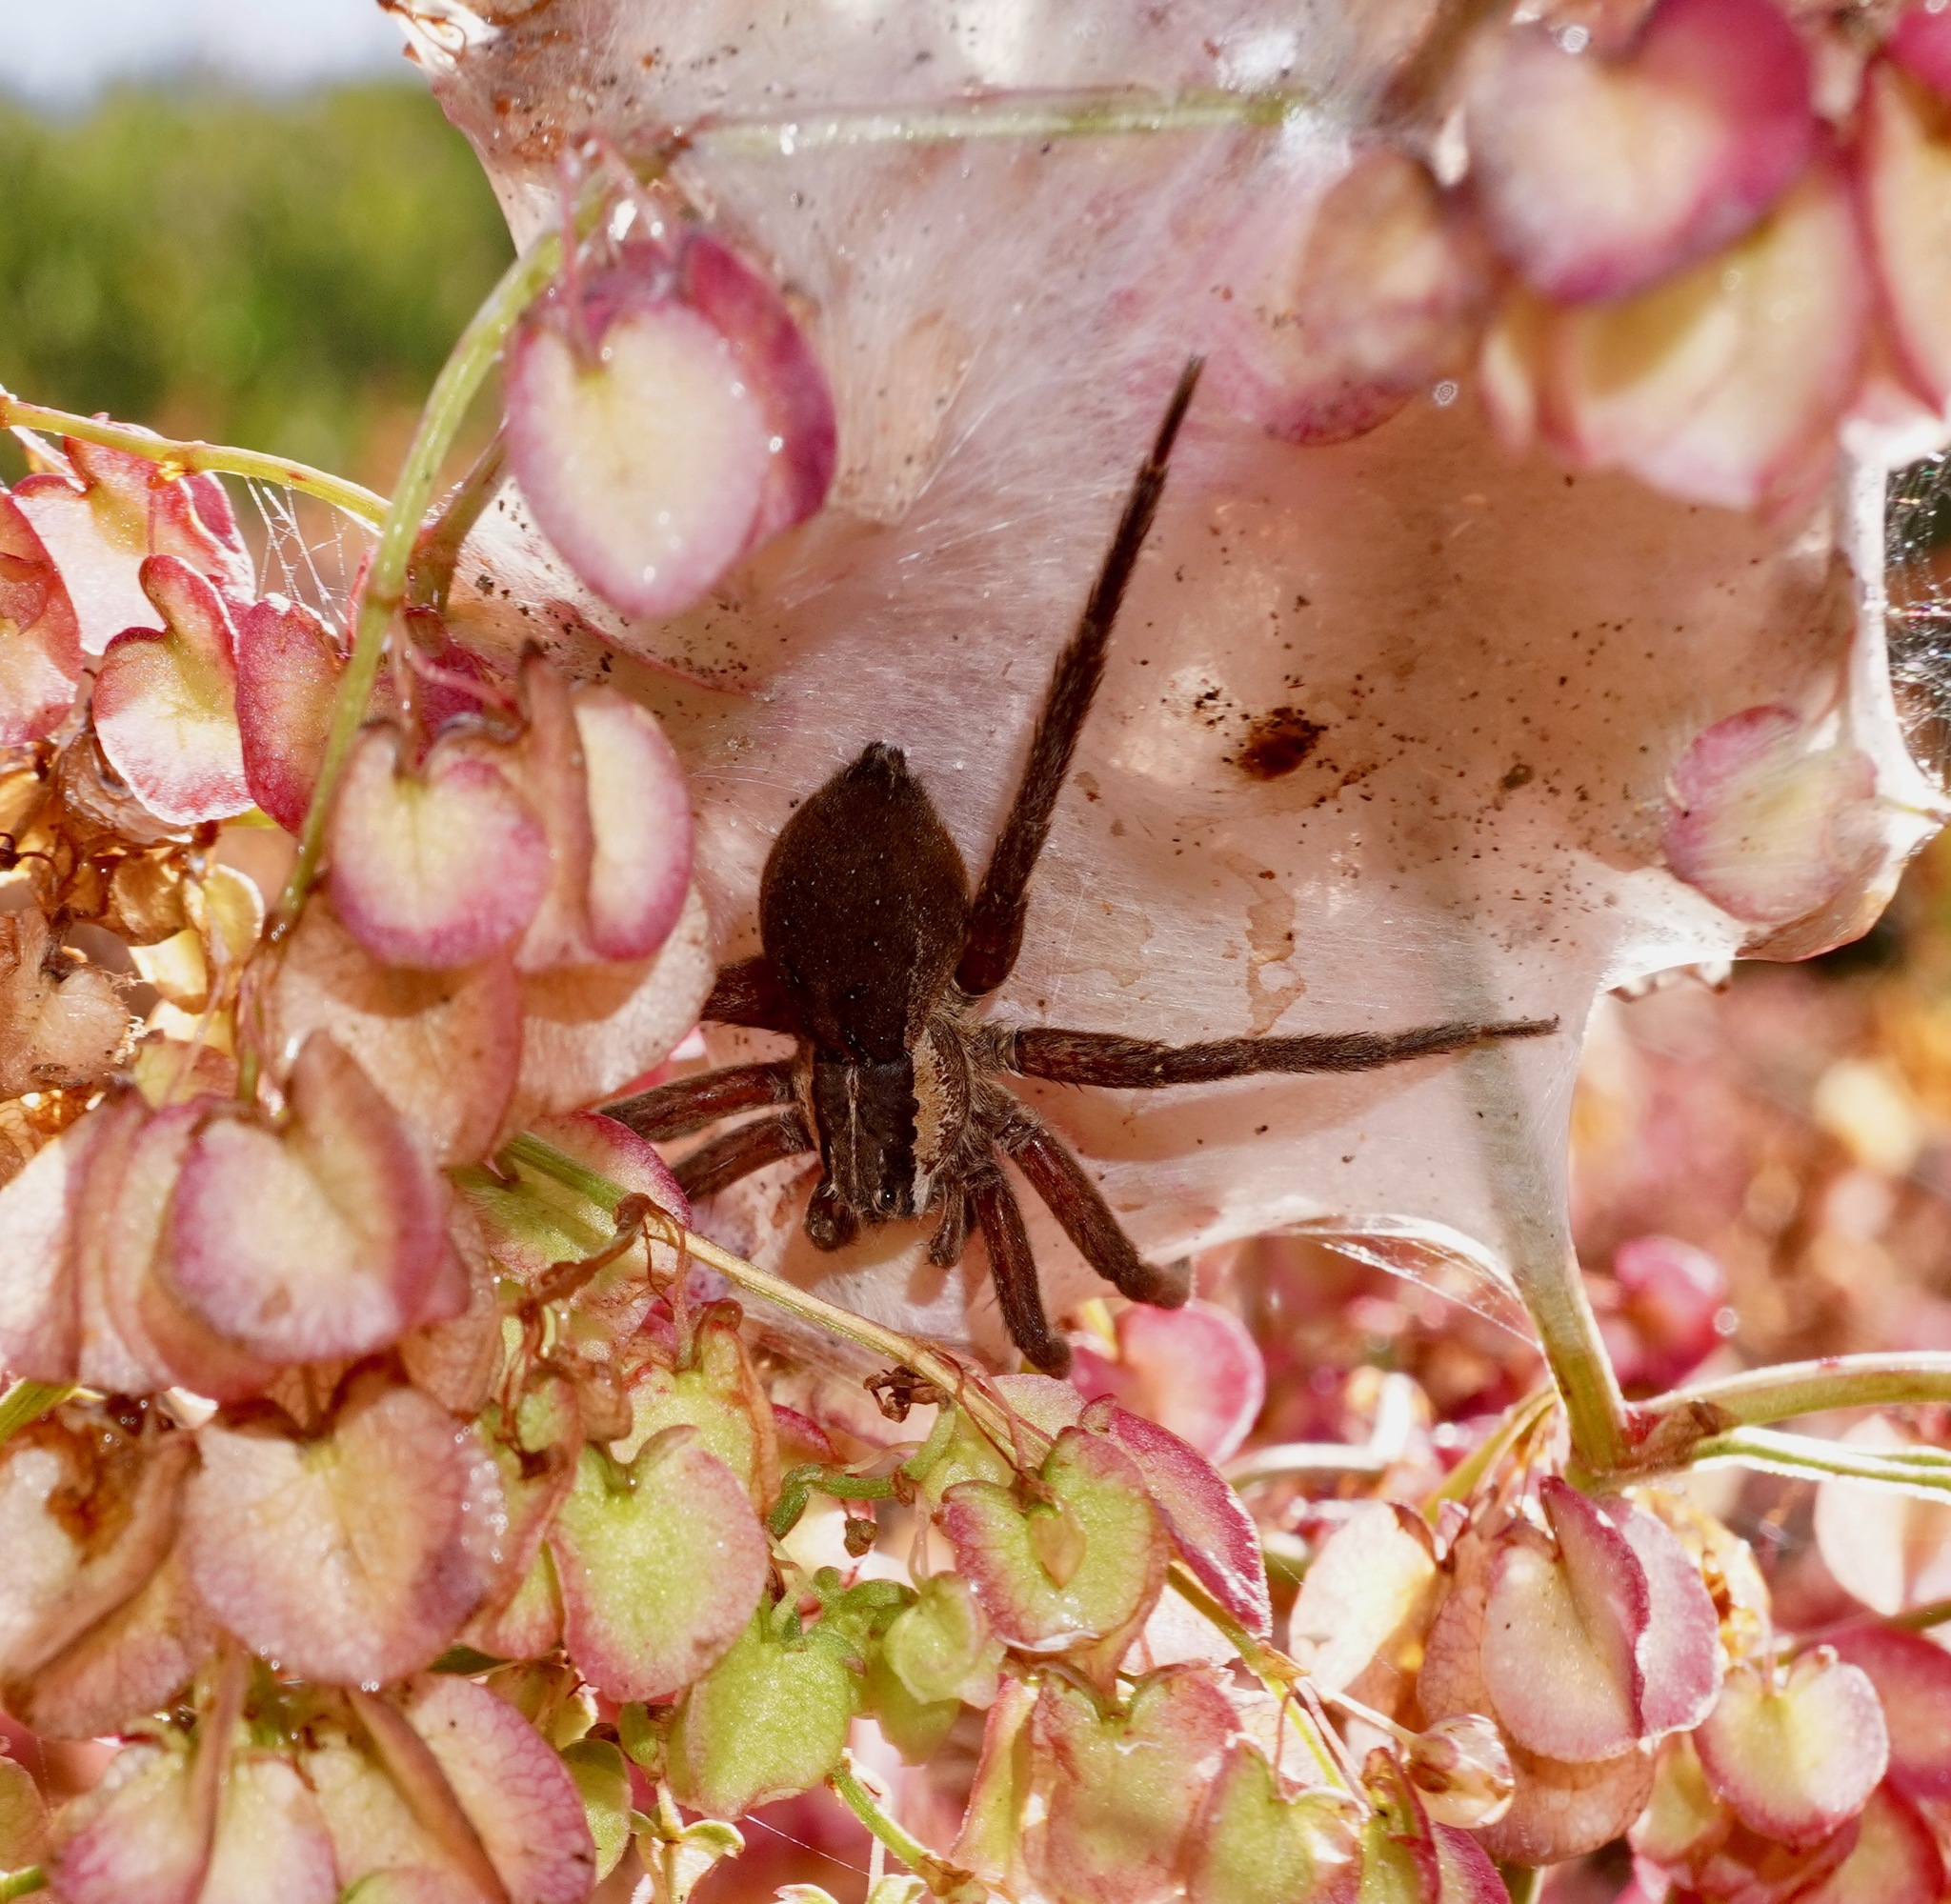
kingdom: Animalia
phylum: Arthropoda
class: Arachnida
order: Araneae
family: Pisauridae
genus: Dolomedes
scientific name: Dolomedes minor
